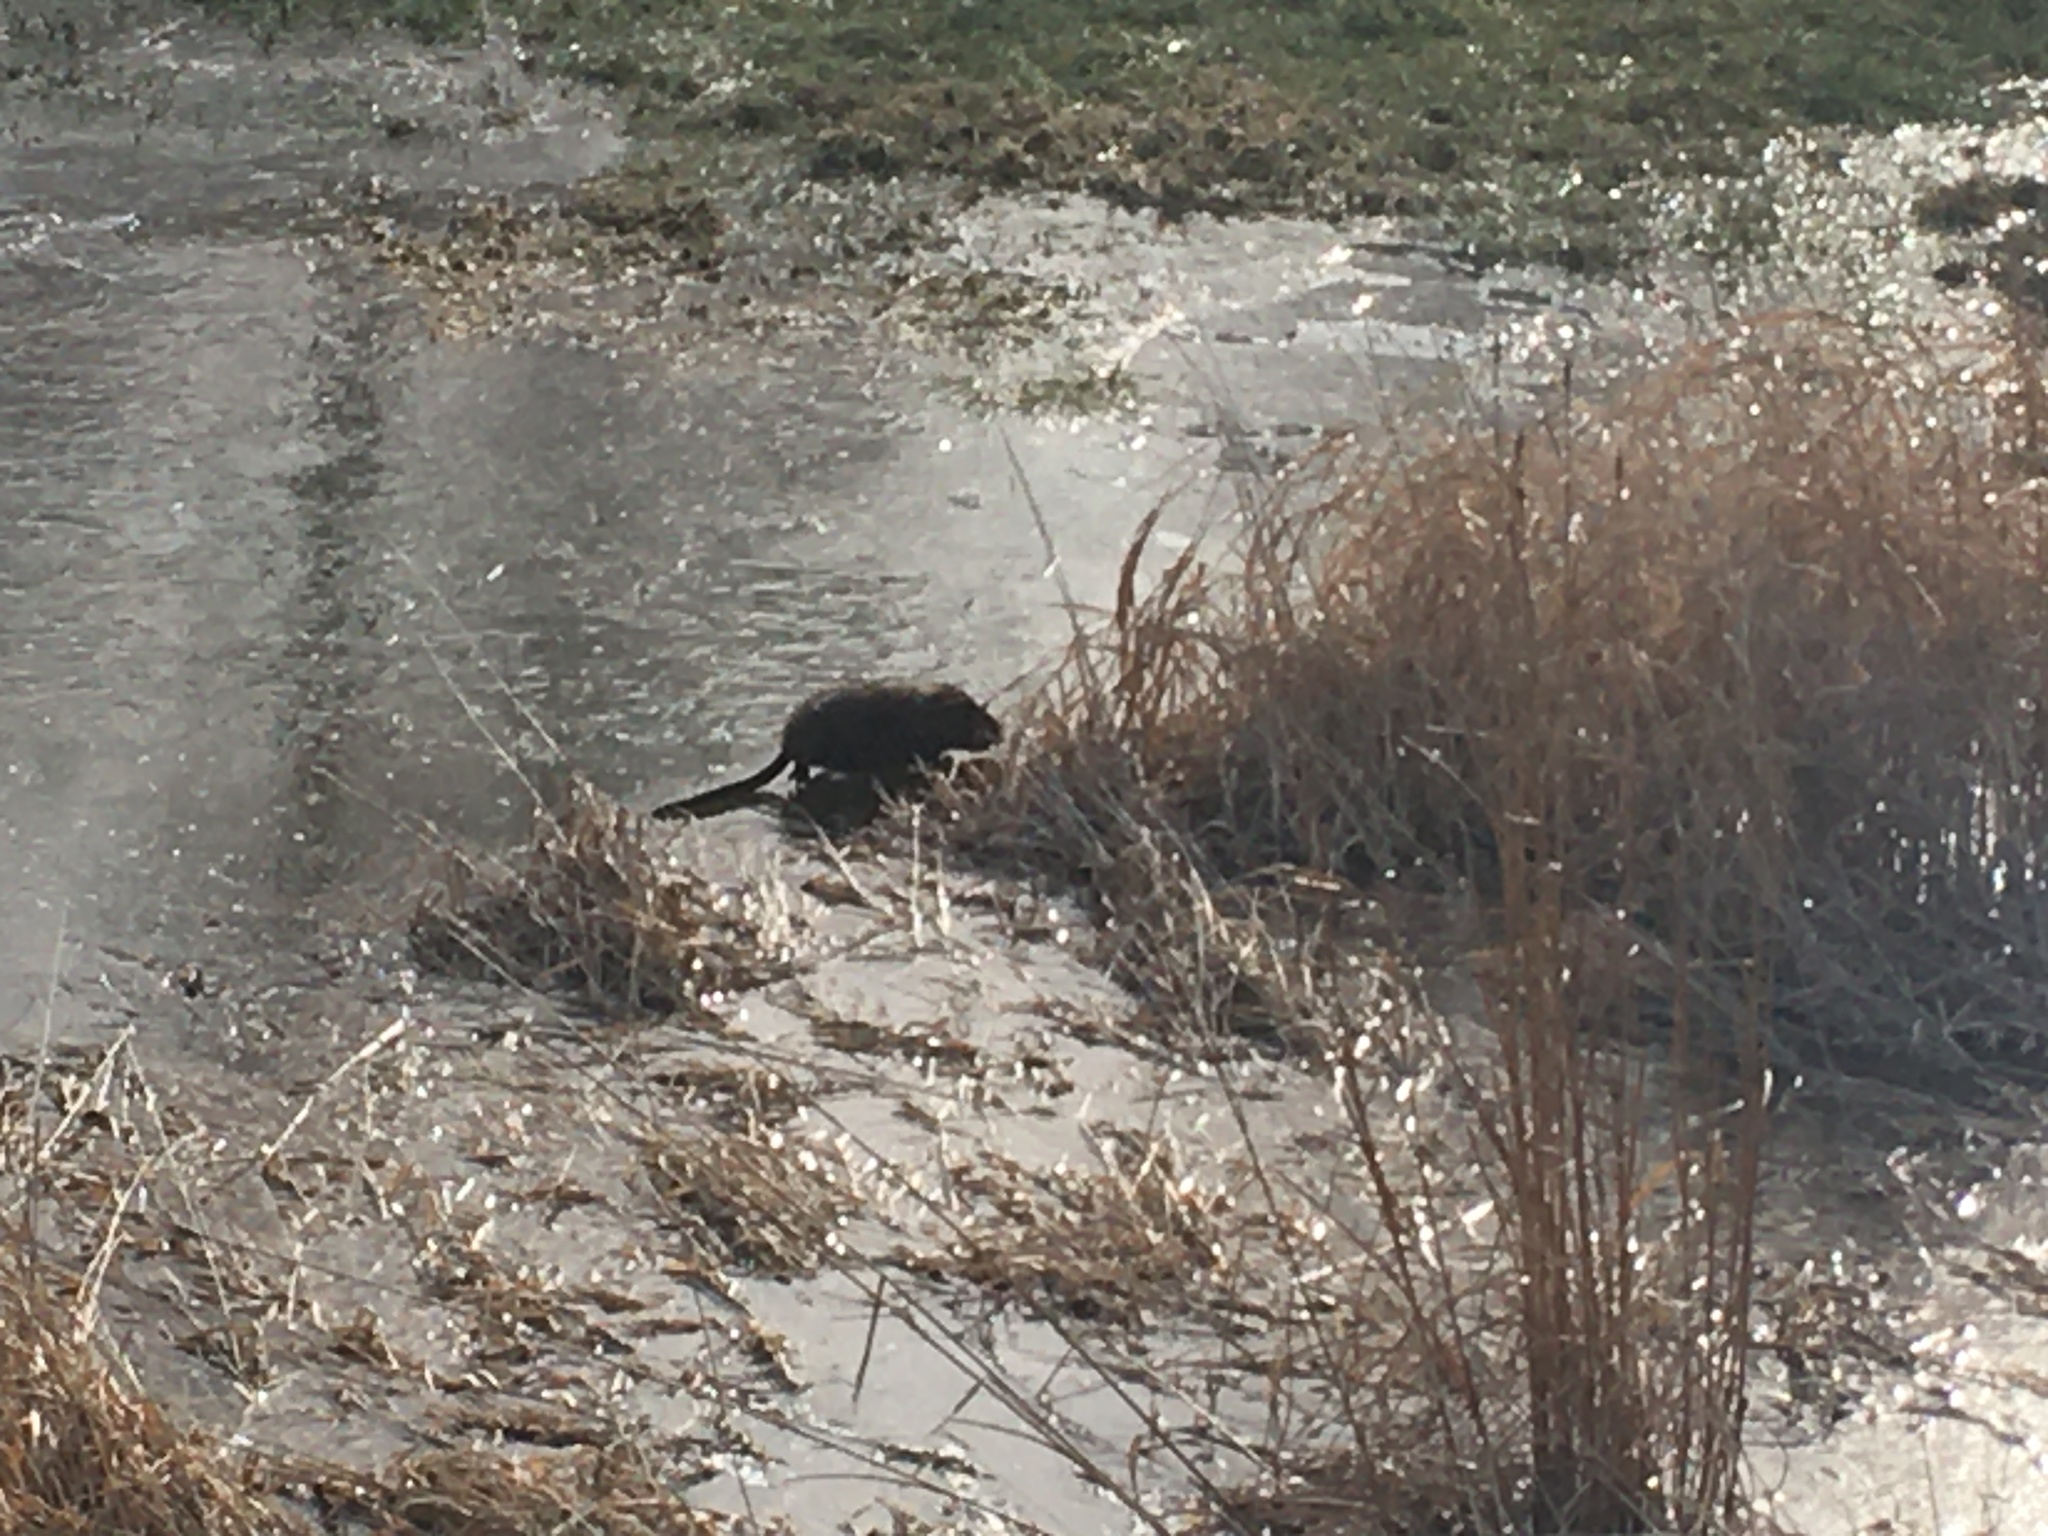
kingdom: Animalia
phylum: Chordata
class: Mammalia
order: Rodentia
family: Cricetidae
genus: Ondatra
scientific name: Ondatra zibethicus
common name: Muskrat
